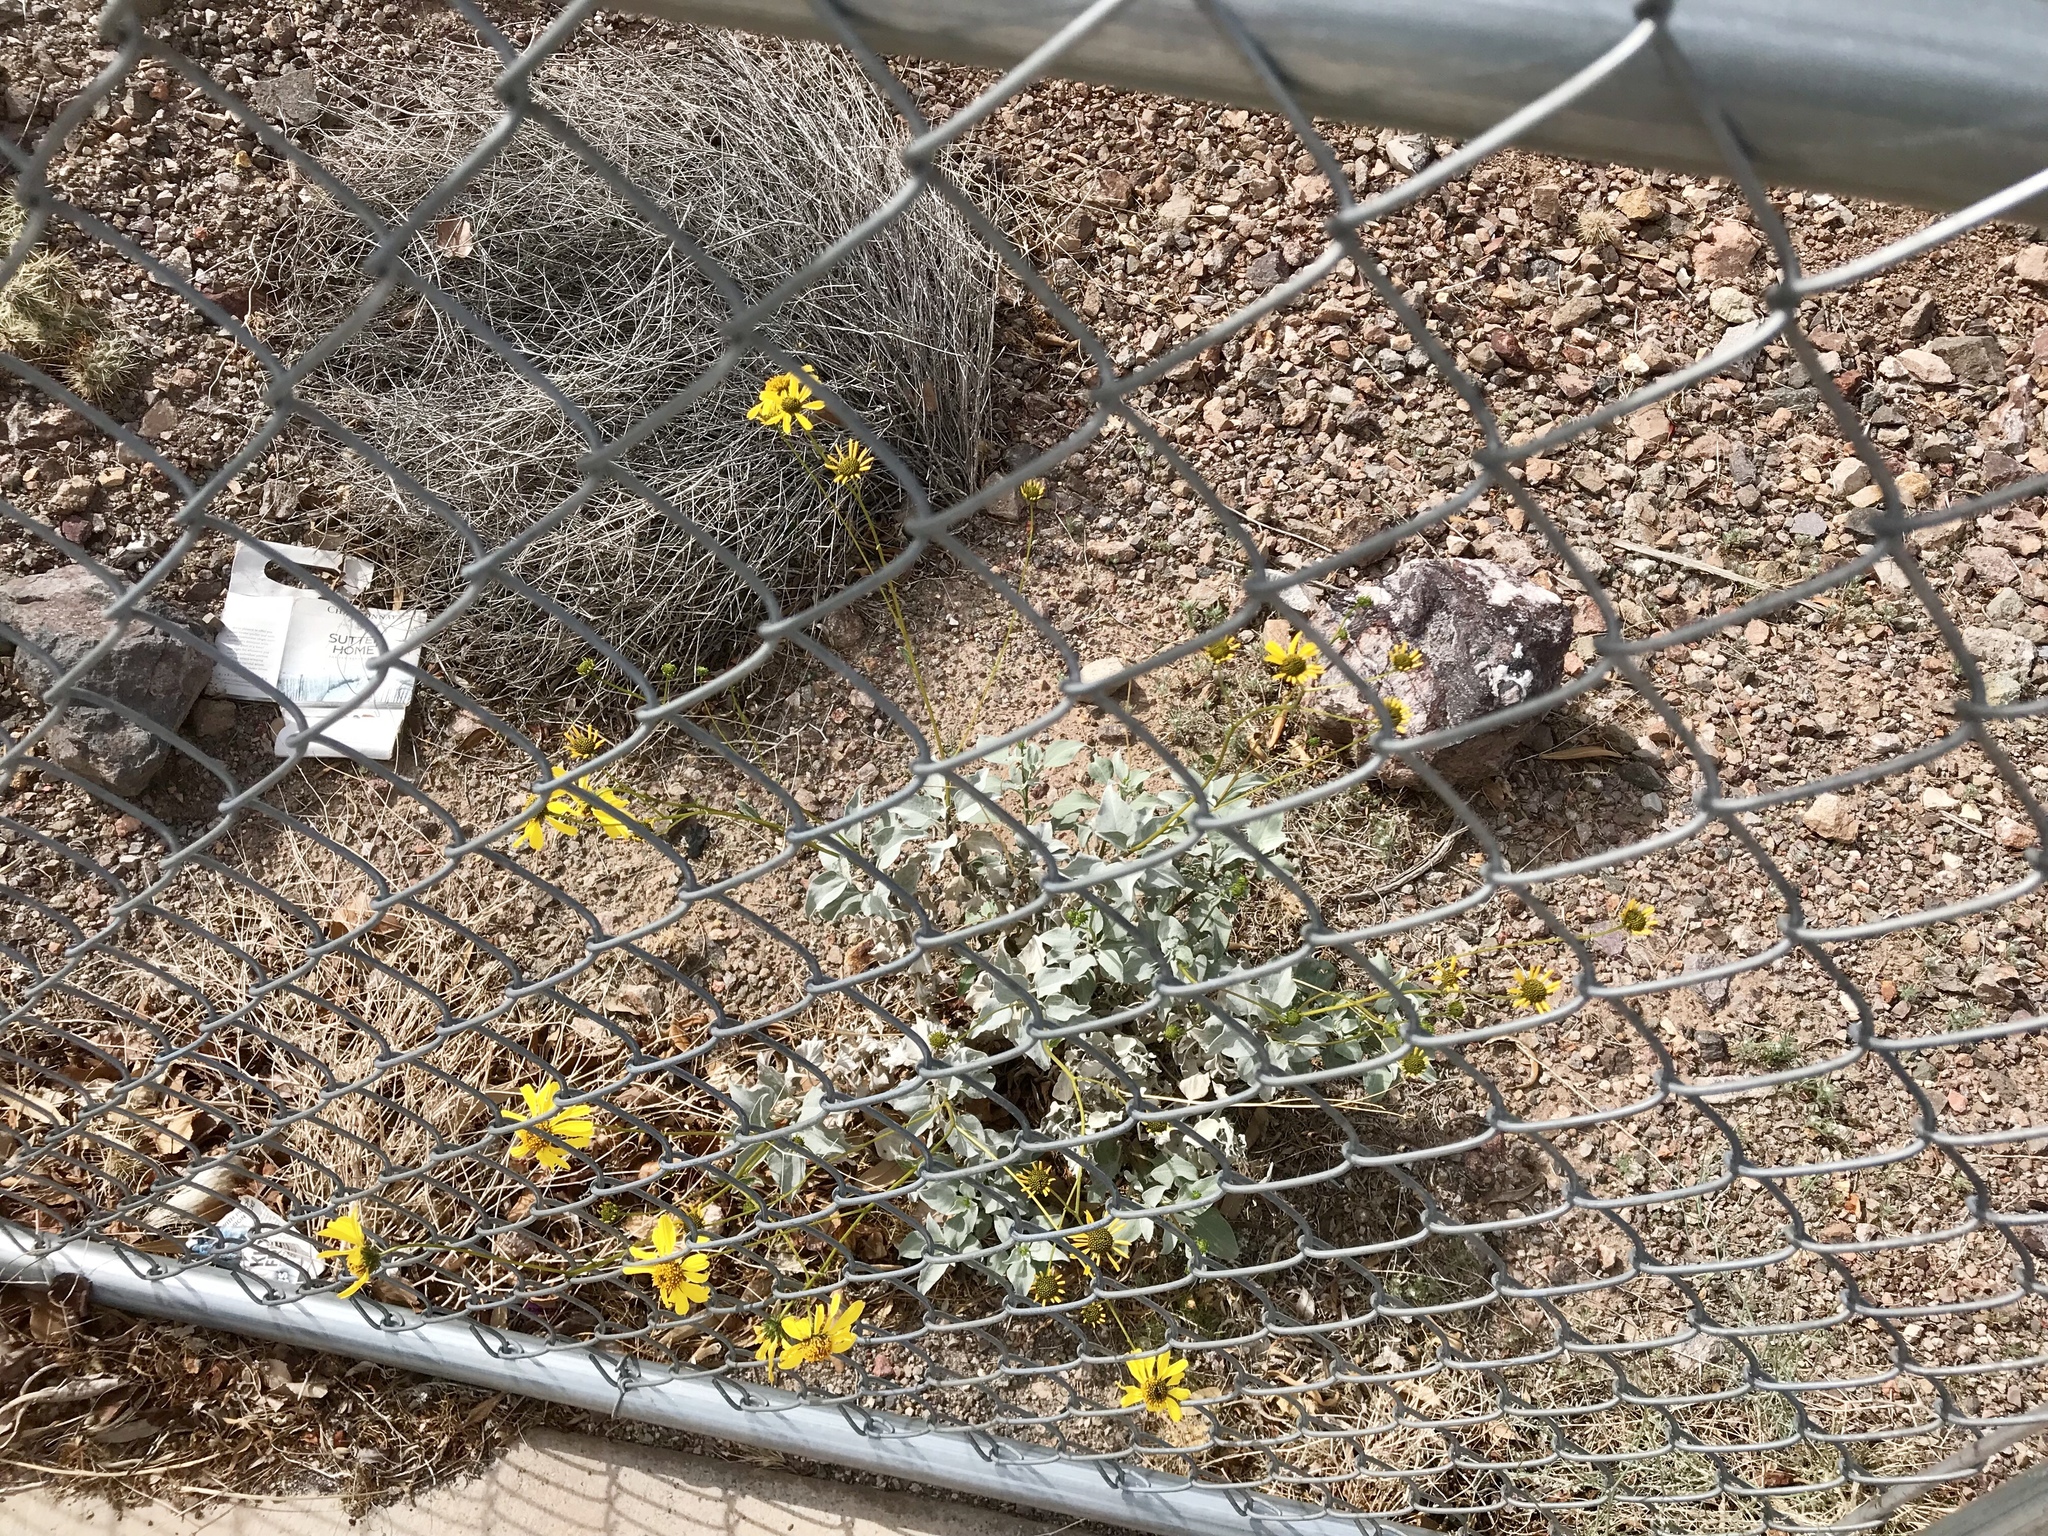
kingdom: Plantae
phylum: Tracheophyta
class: Magnoliopsida
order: Asterales
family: Asteraceae
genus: Encelia
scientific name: Encelia farinosa
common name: Brittlebush
